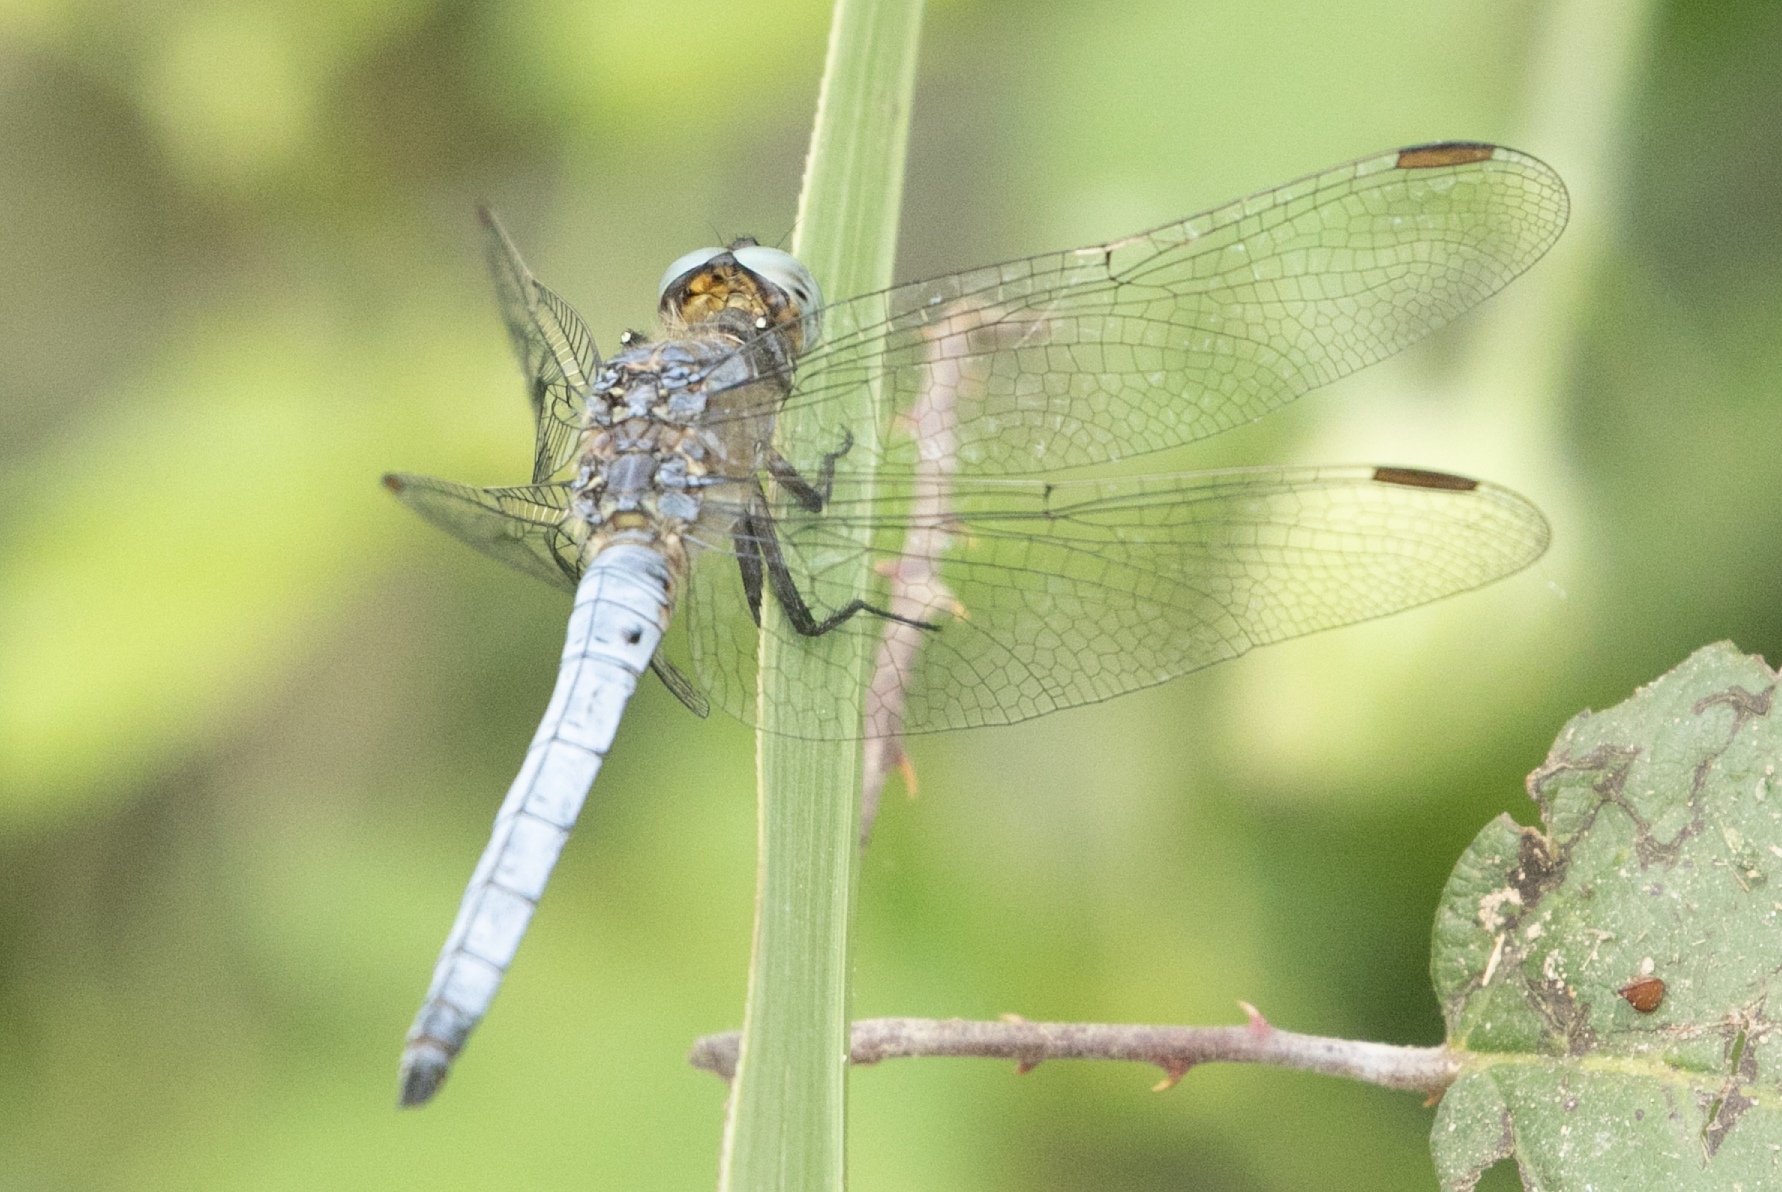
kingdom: Animalia
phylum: Arthropoda
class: Insecta
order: Odonata
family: Libellulidae
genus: Orthetrum
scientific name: Orthetrum coerulescens
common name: Keeled skimmer
